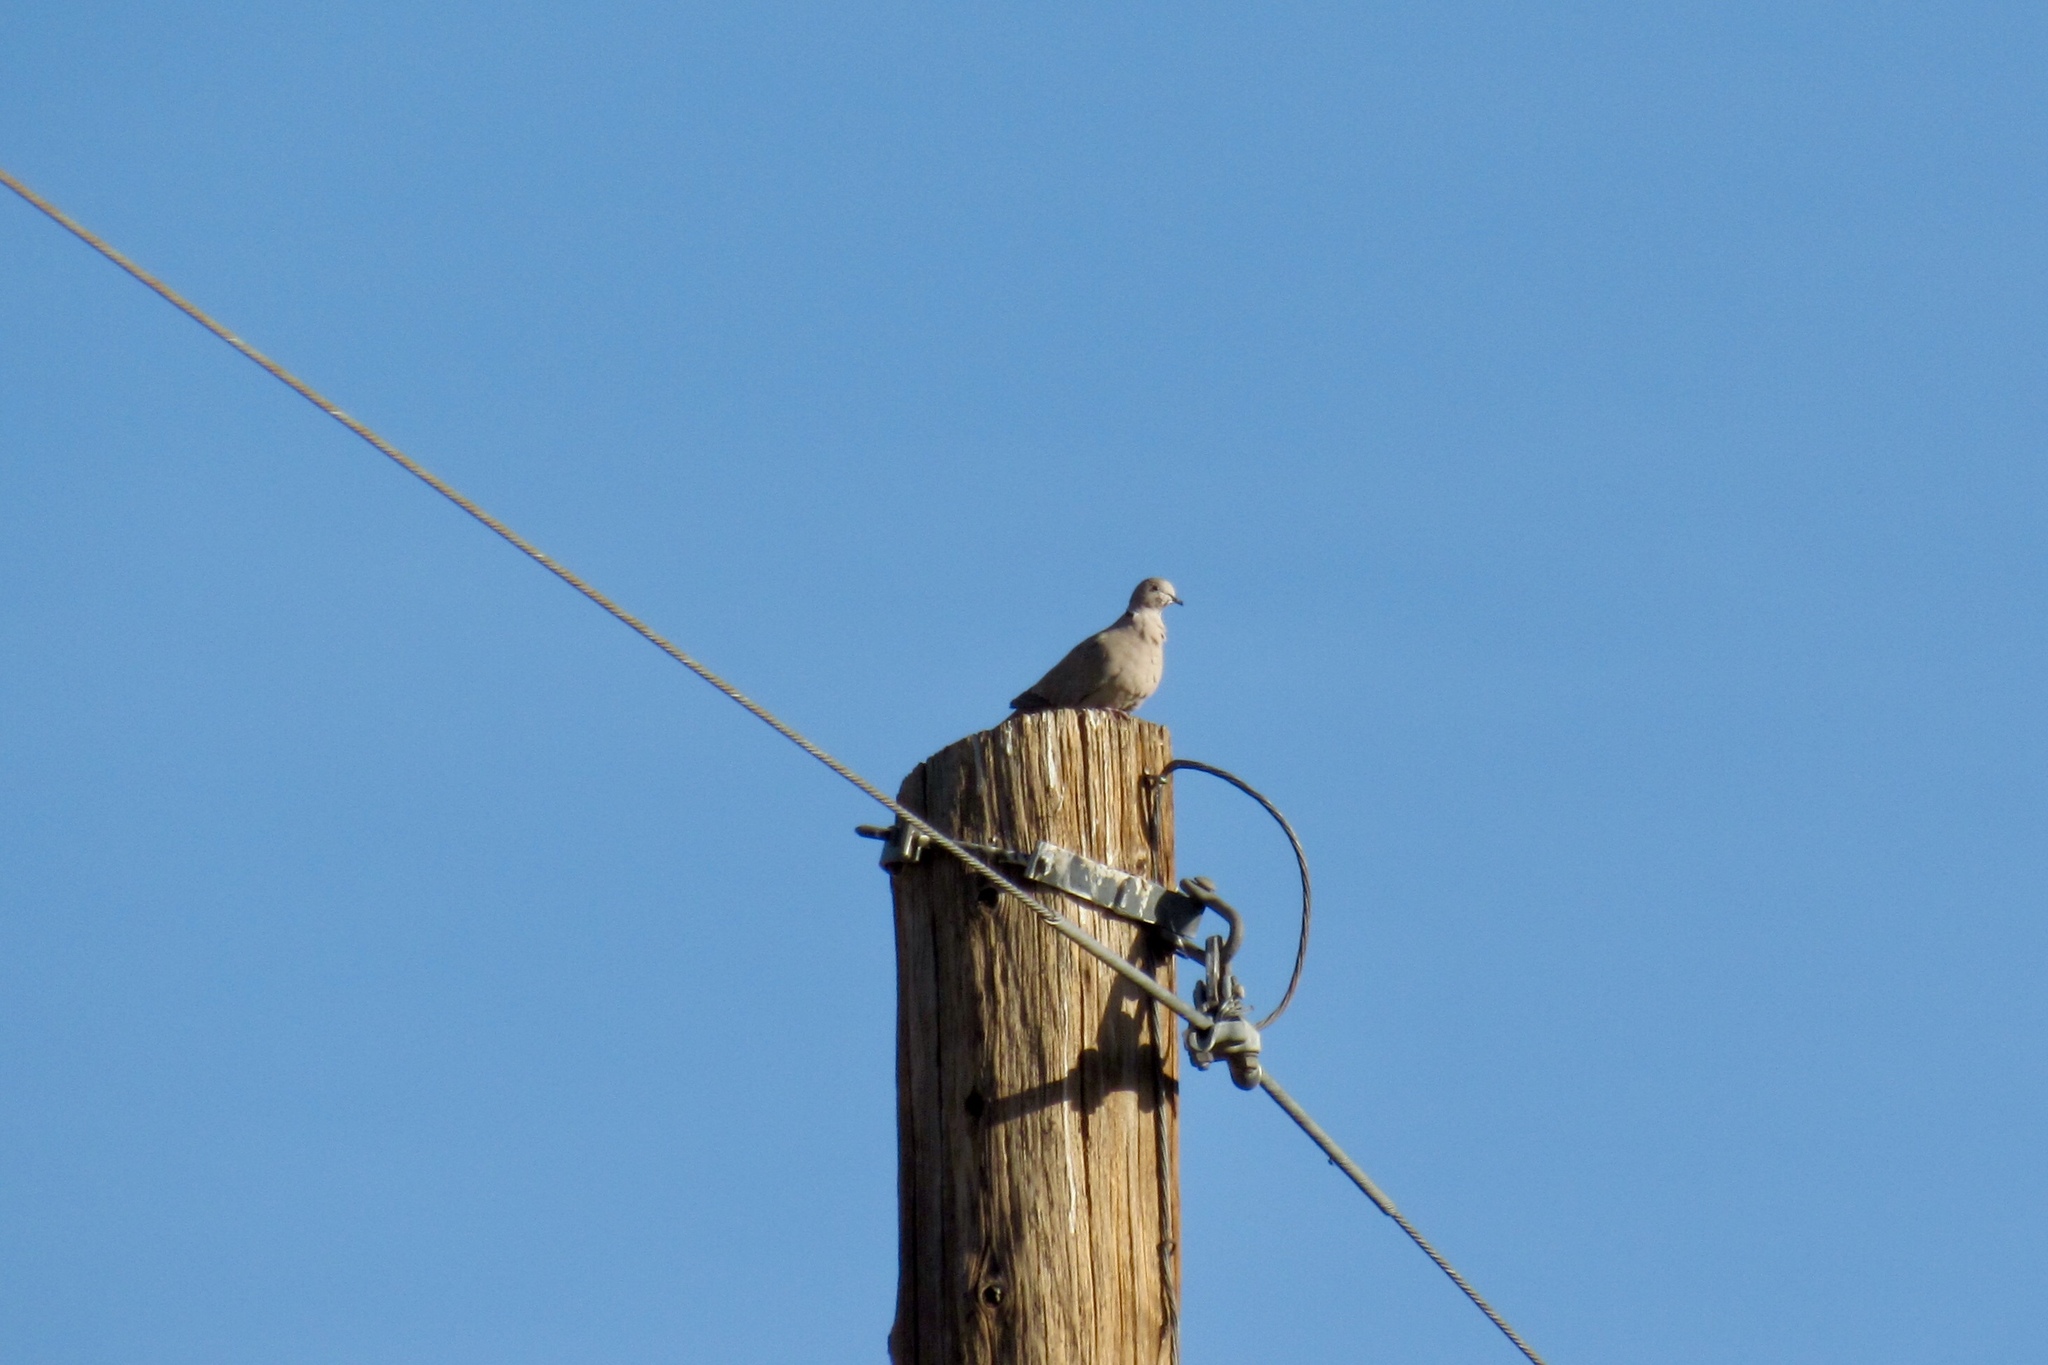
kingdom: Animalia
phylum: Chordata
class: Aves
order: Columbiformes
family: Columbidae
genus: Streptopelia
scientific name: Streptopelia decaocto
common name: Eurasian collared dove
